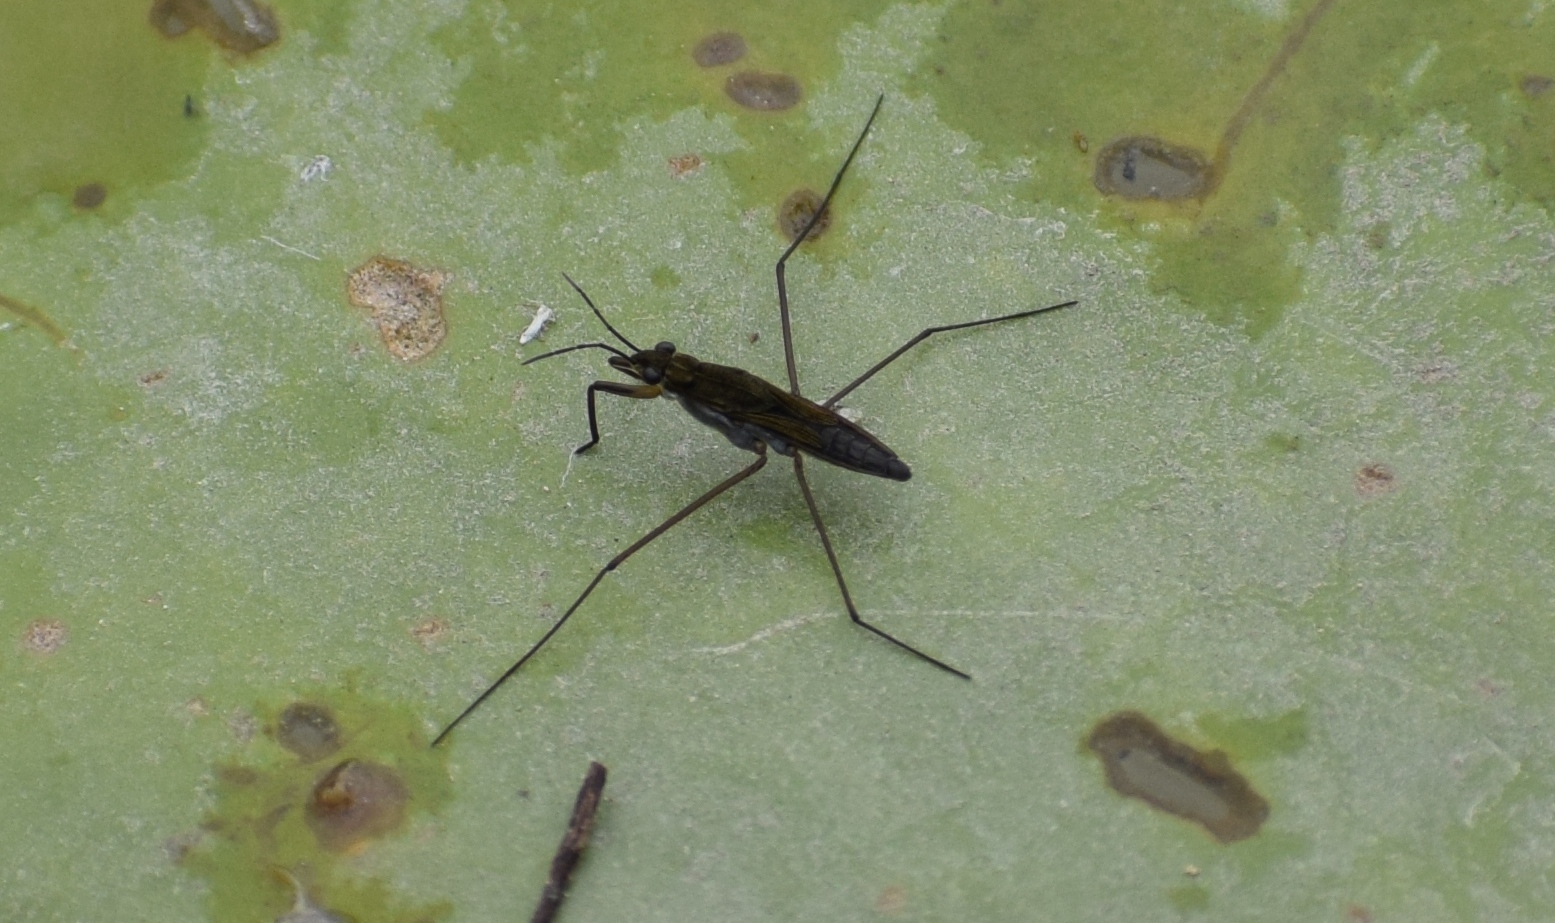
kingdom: Animalia
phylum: Arthropoda
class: Insecta
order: Hemiptera
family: Gerridae
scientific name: Gerridae
